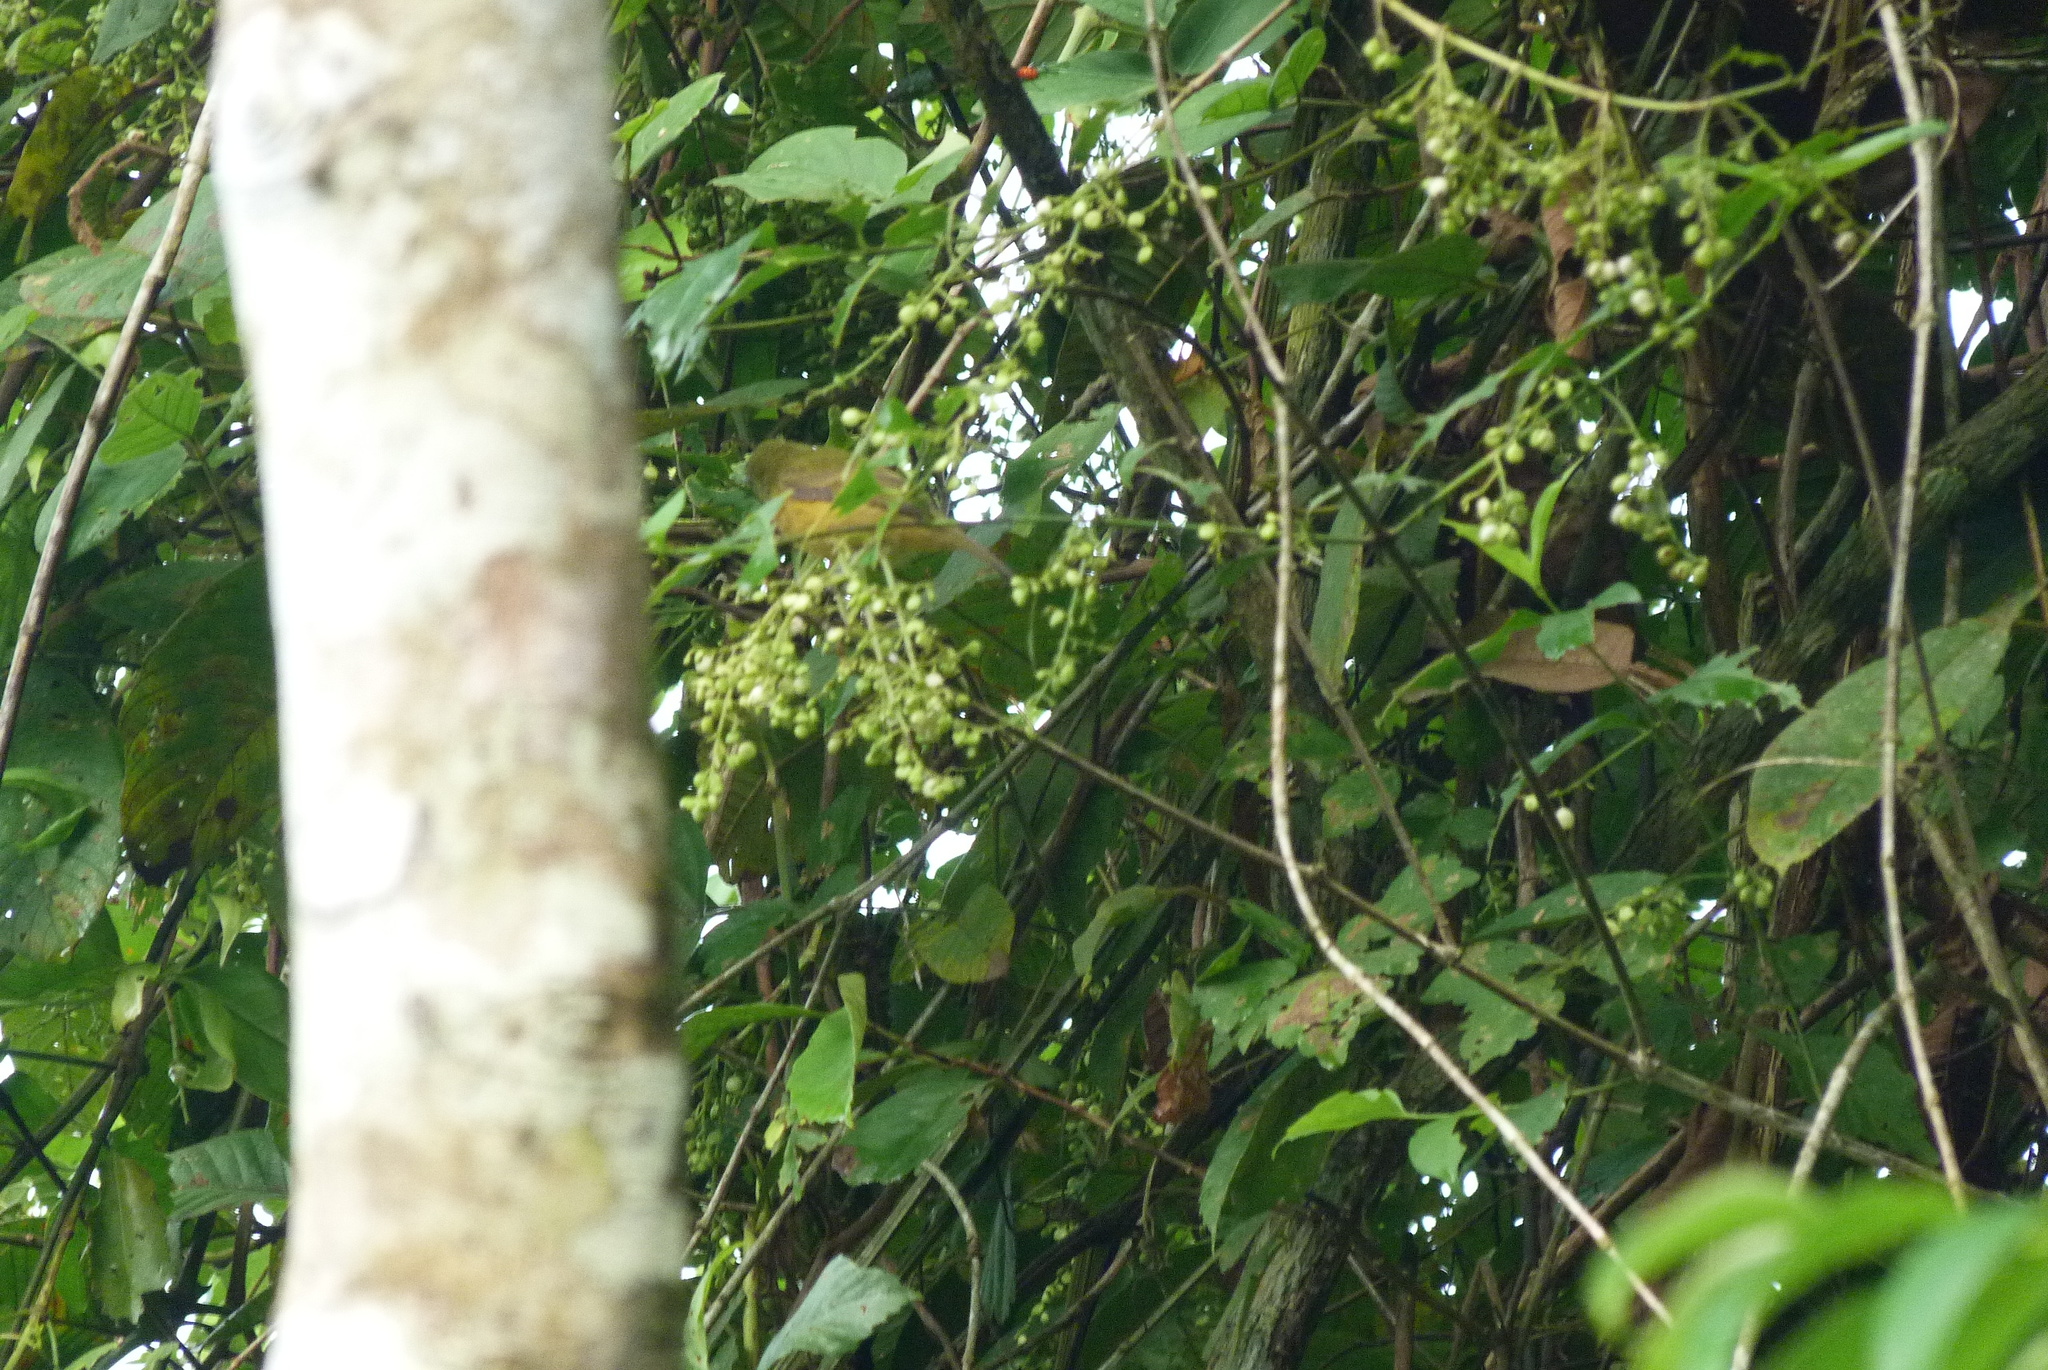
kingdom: Animalia
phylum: Chordata
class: Aves
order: Passeriformes
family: Tyrannidae
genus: Mionectes
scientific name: Mionectes oleagineus
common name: Ochre-bellied flycatcher
